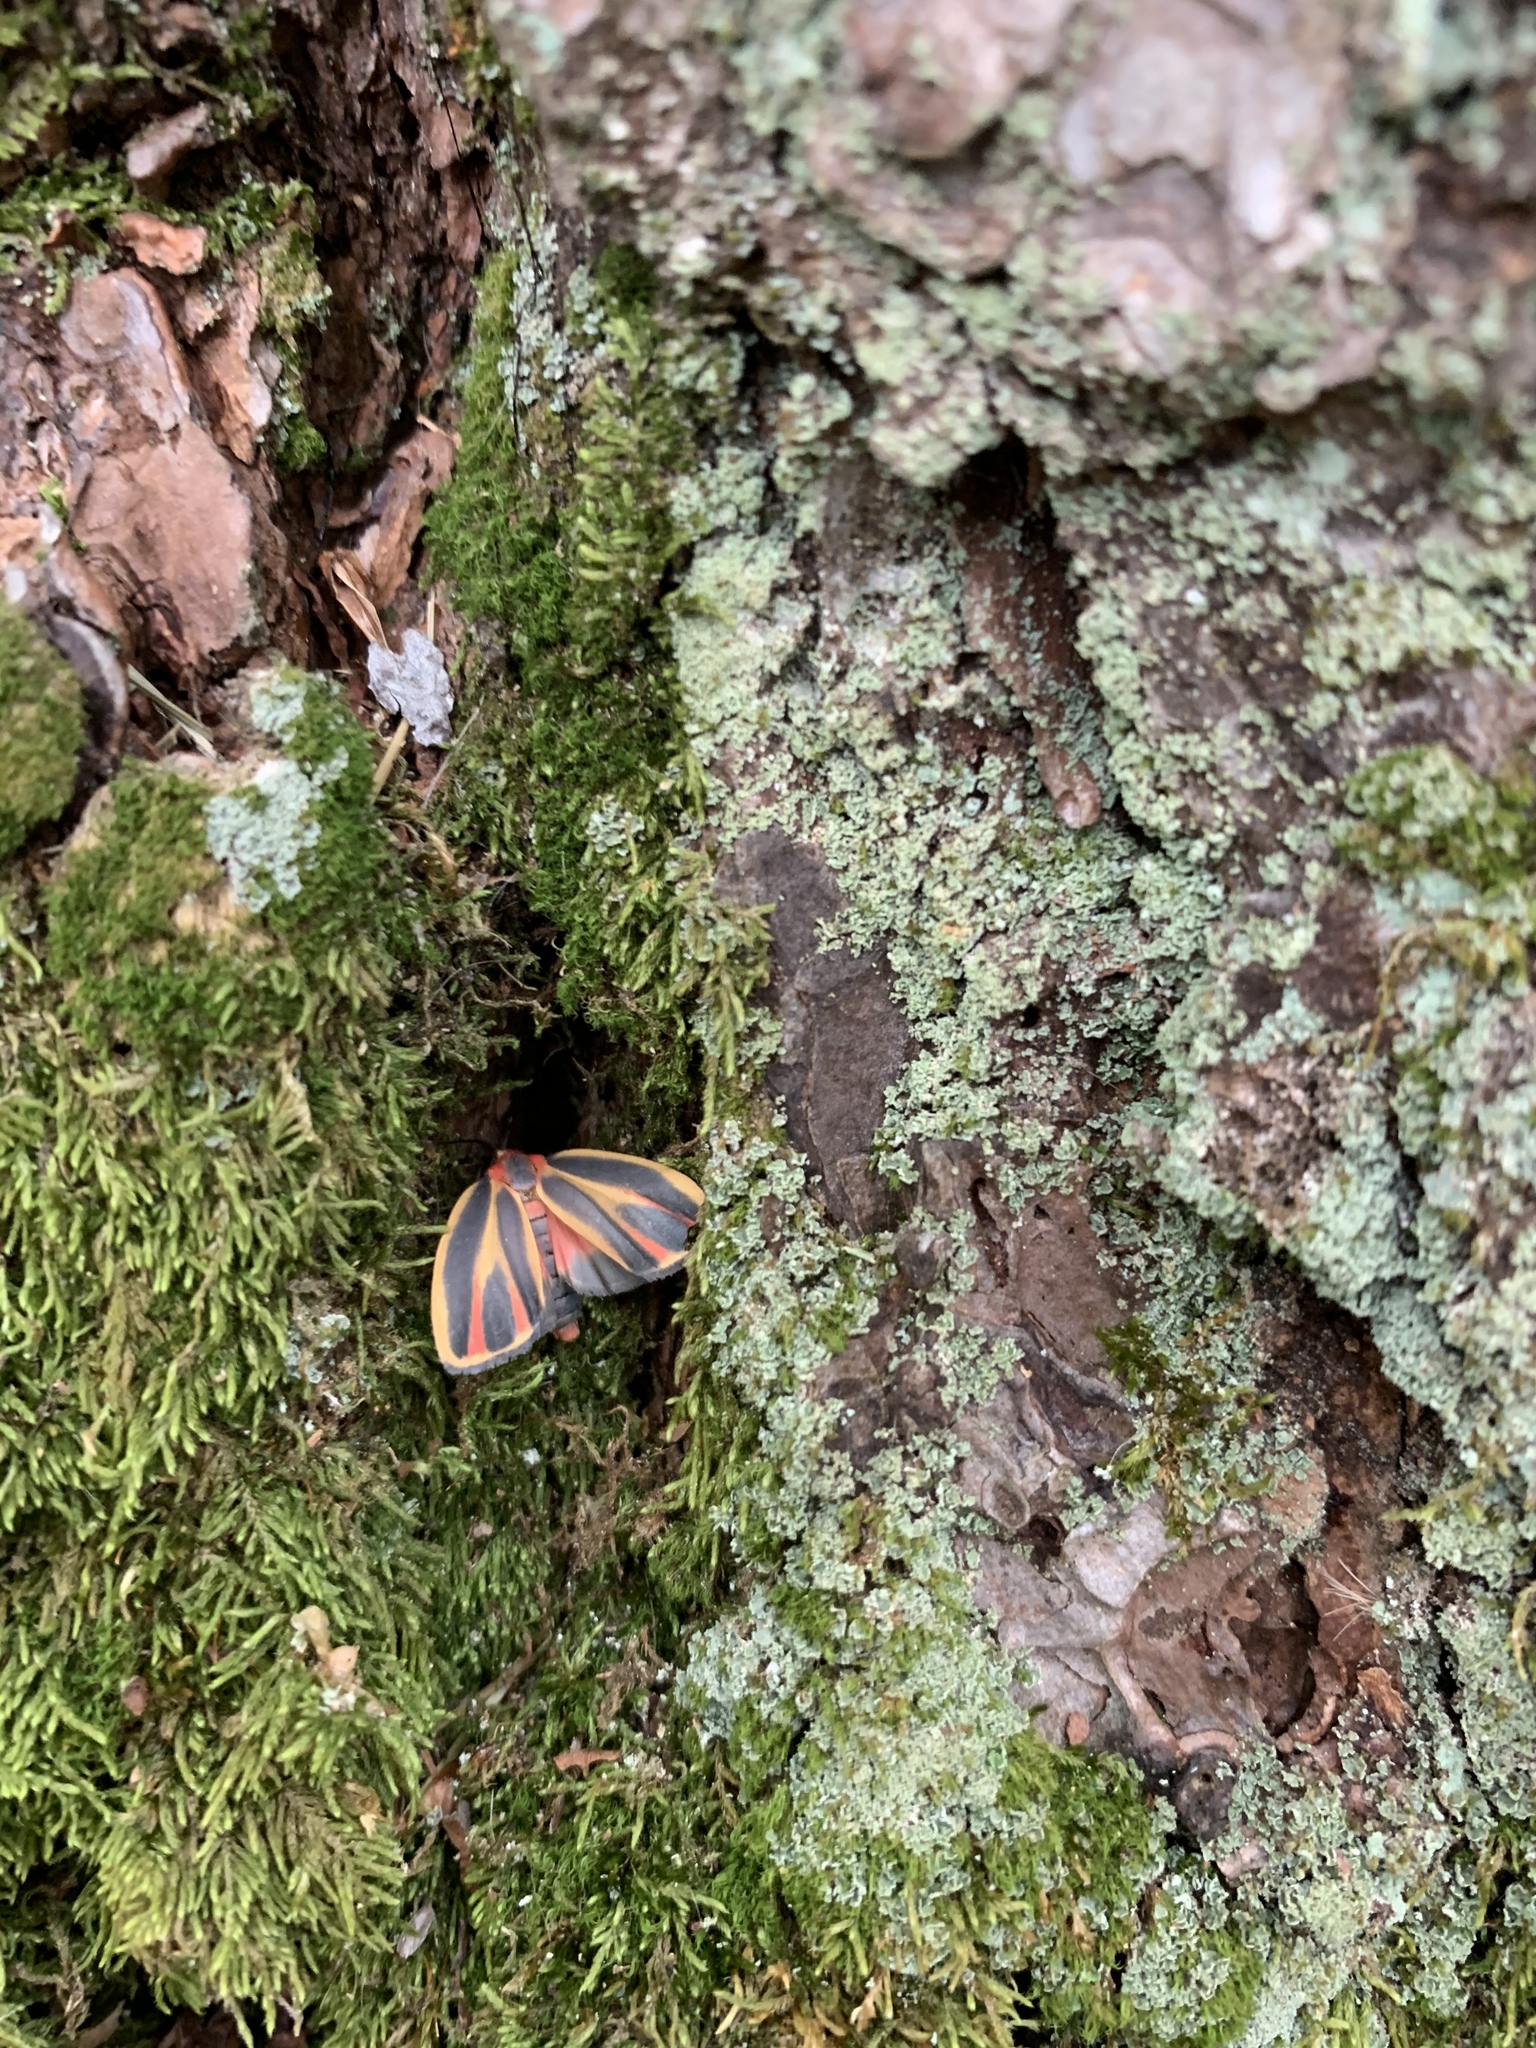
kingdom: Animalia
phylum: Arthropoda
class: Insecta
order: Lepidoptera
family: Erebidae
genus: Hypoprepia
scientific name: Hypoprepia fucosa
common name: Painted lichen moth
